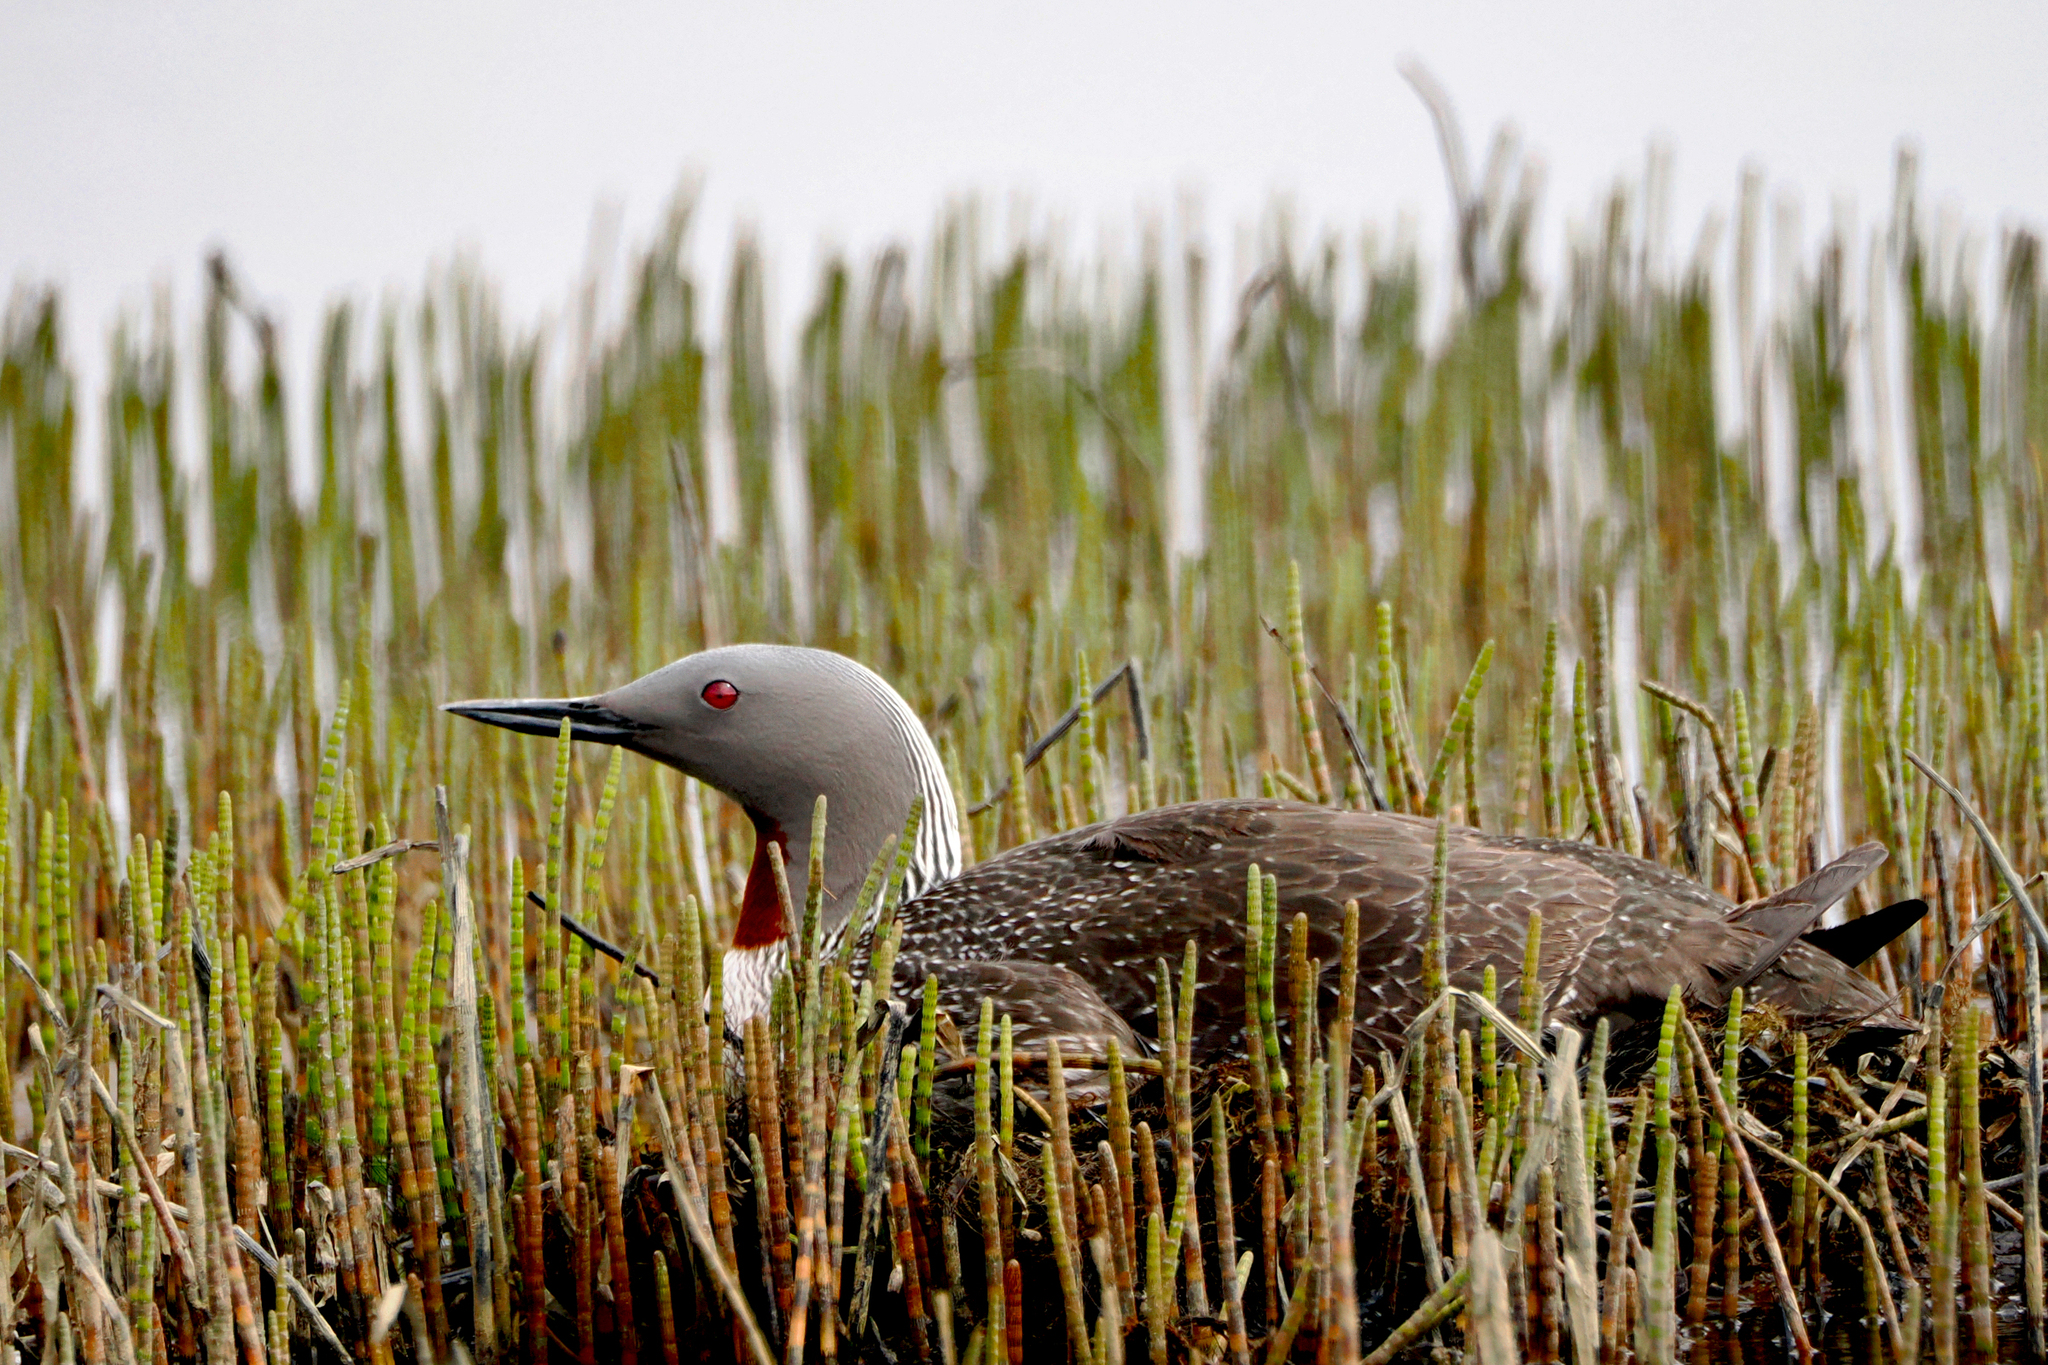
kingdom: Animalia
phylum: Chordata
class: Aves
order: Gaviiformes
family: Gaviidae
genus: Gavia
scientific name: Gavia stellata
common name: Red-throated loon
